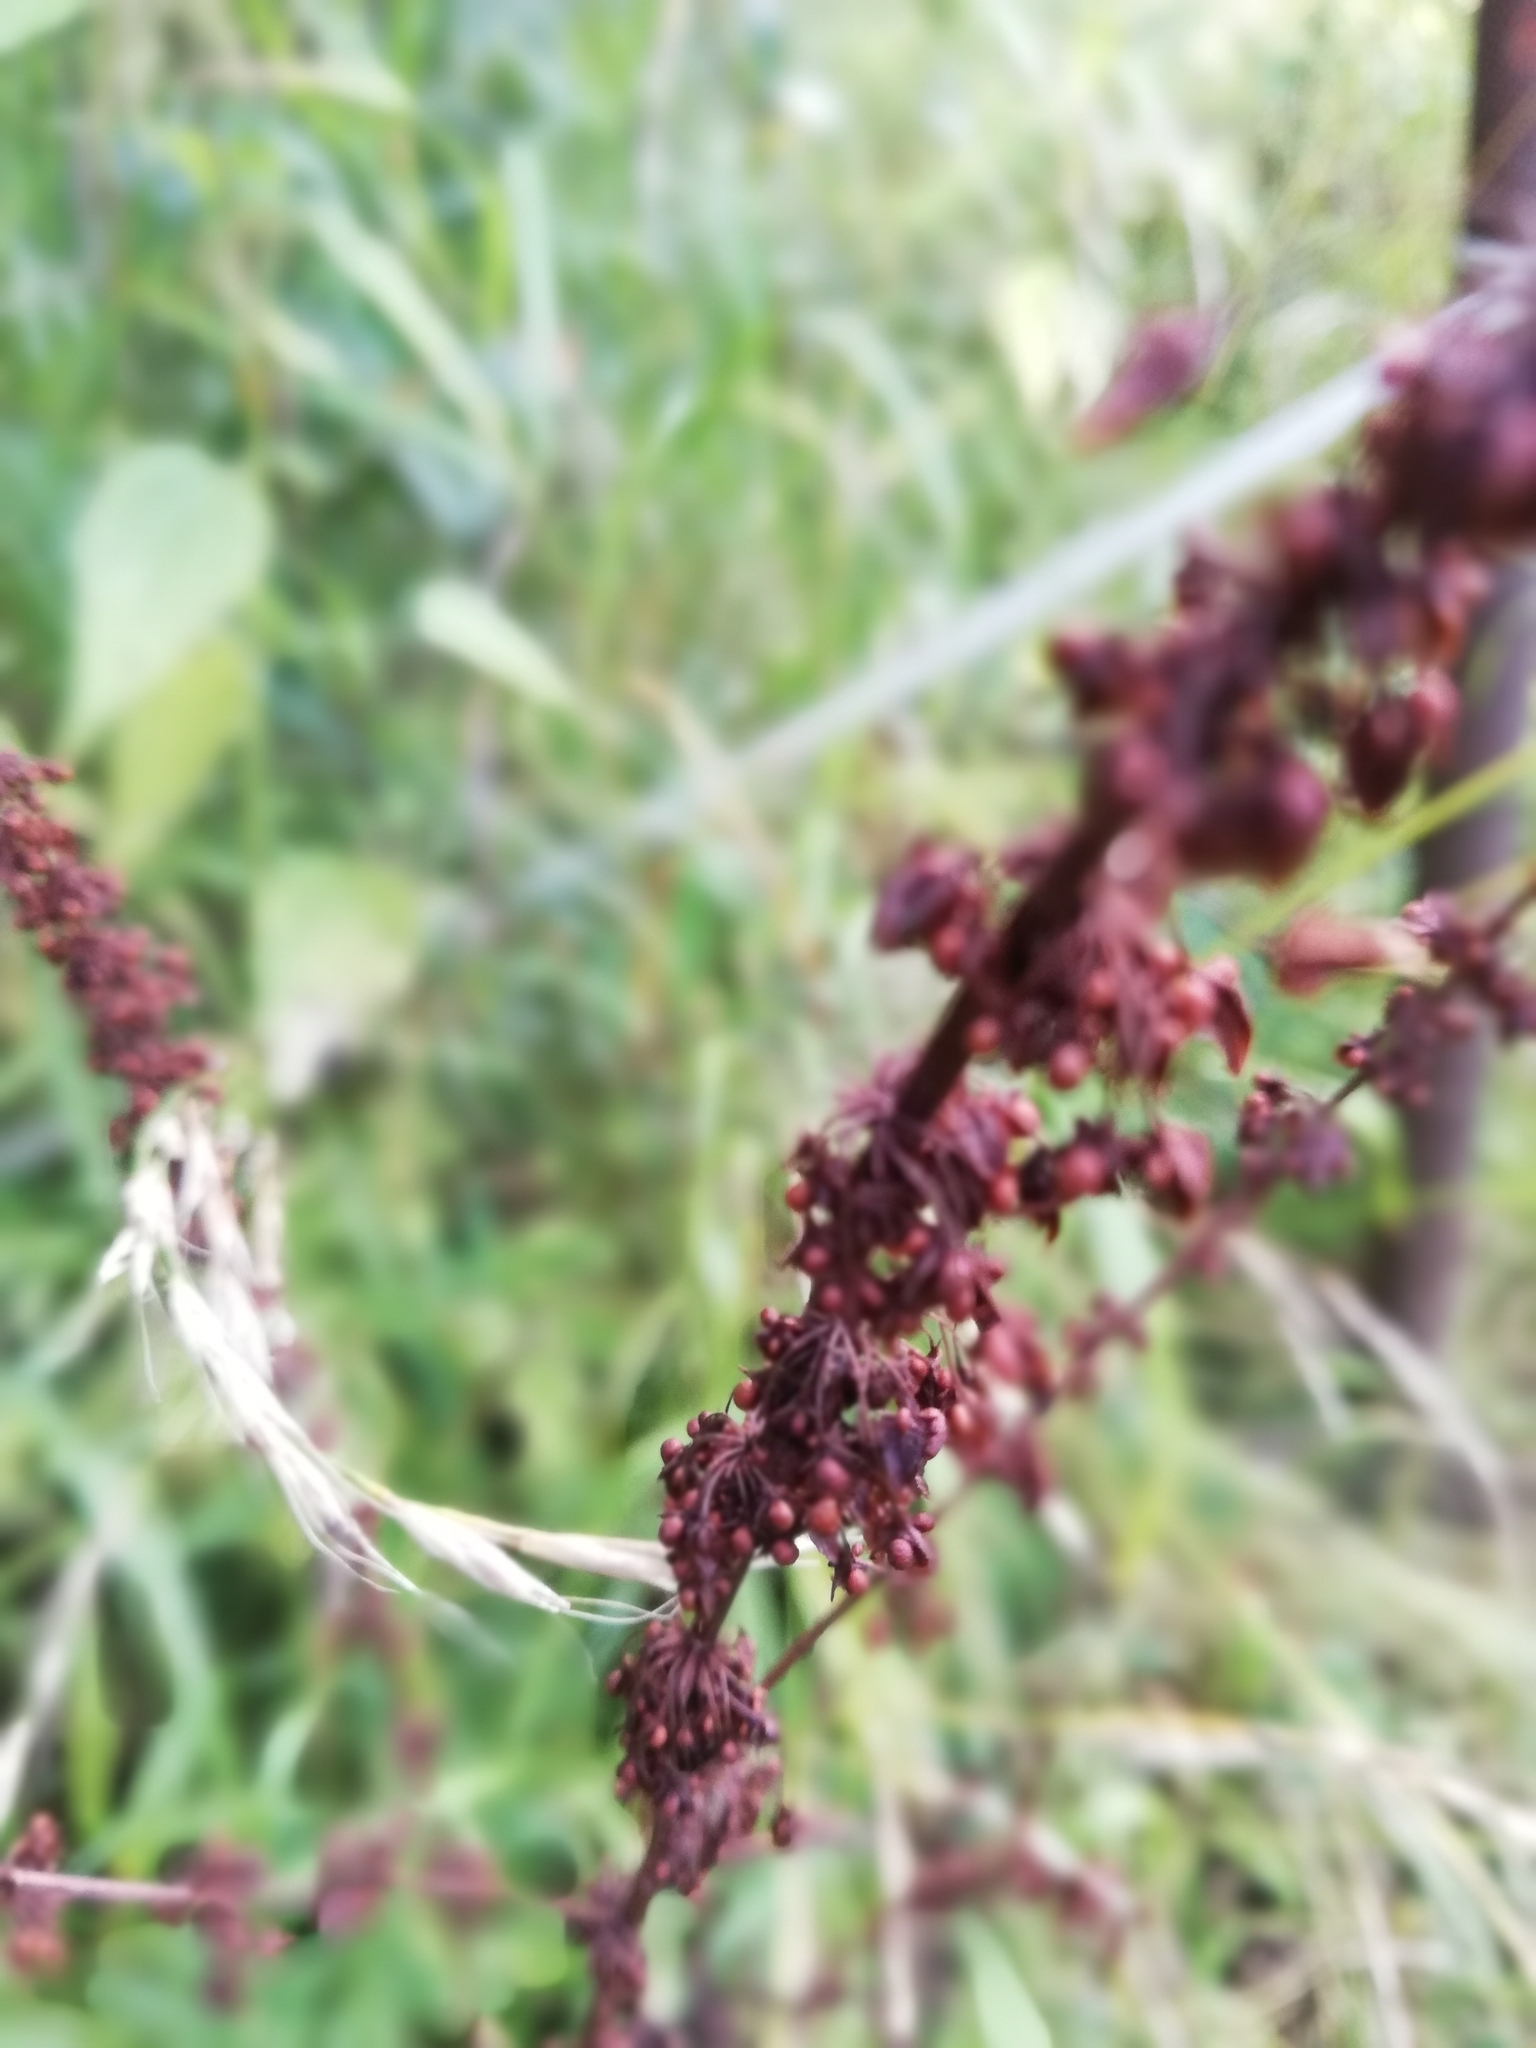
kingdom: Plantae
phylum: Tracheophyta
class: Magnoliopsida
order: Caryophyllales
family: Polygonaceae
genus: Rumex
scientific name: Rumex obtusifolius
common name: Bitter dock
